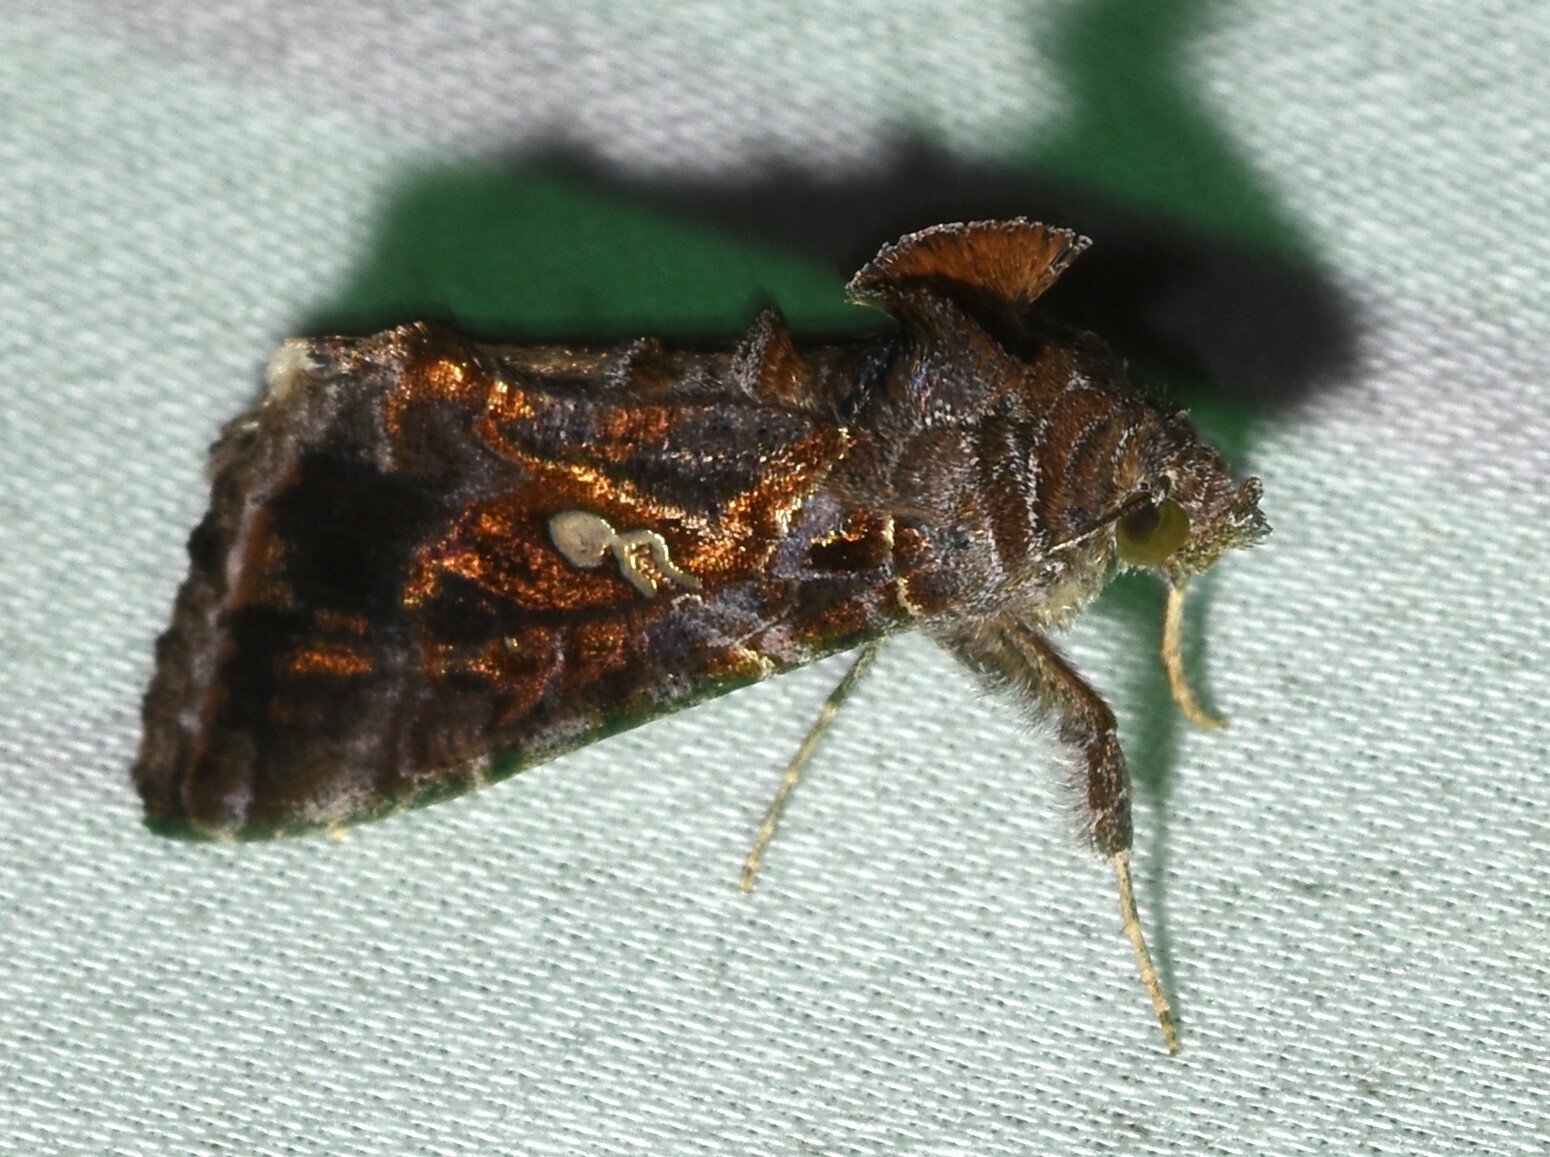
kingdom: Animalia
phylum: Arthropoda
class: Insecta
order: Lepidoptera
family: Noctuidae
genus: Chrysodeixis
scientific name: Chrysodeixis includens
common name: Cutworm moth
